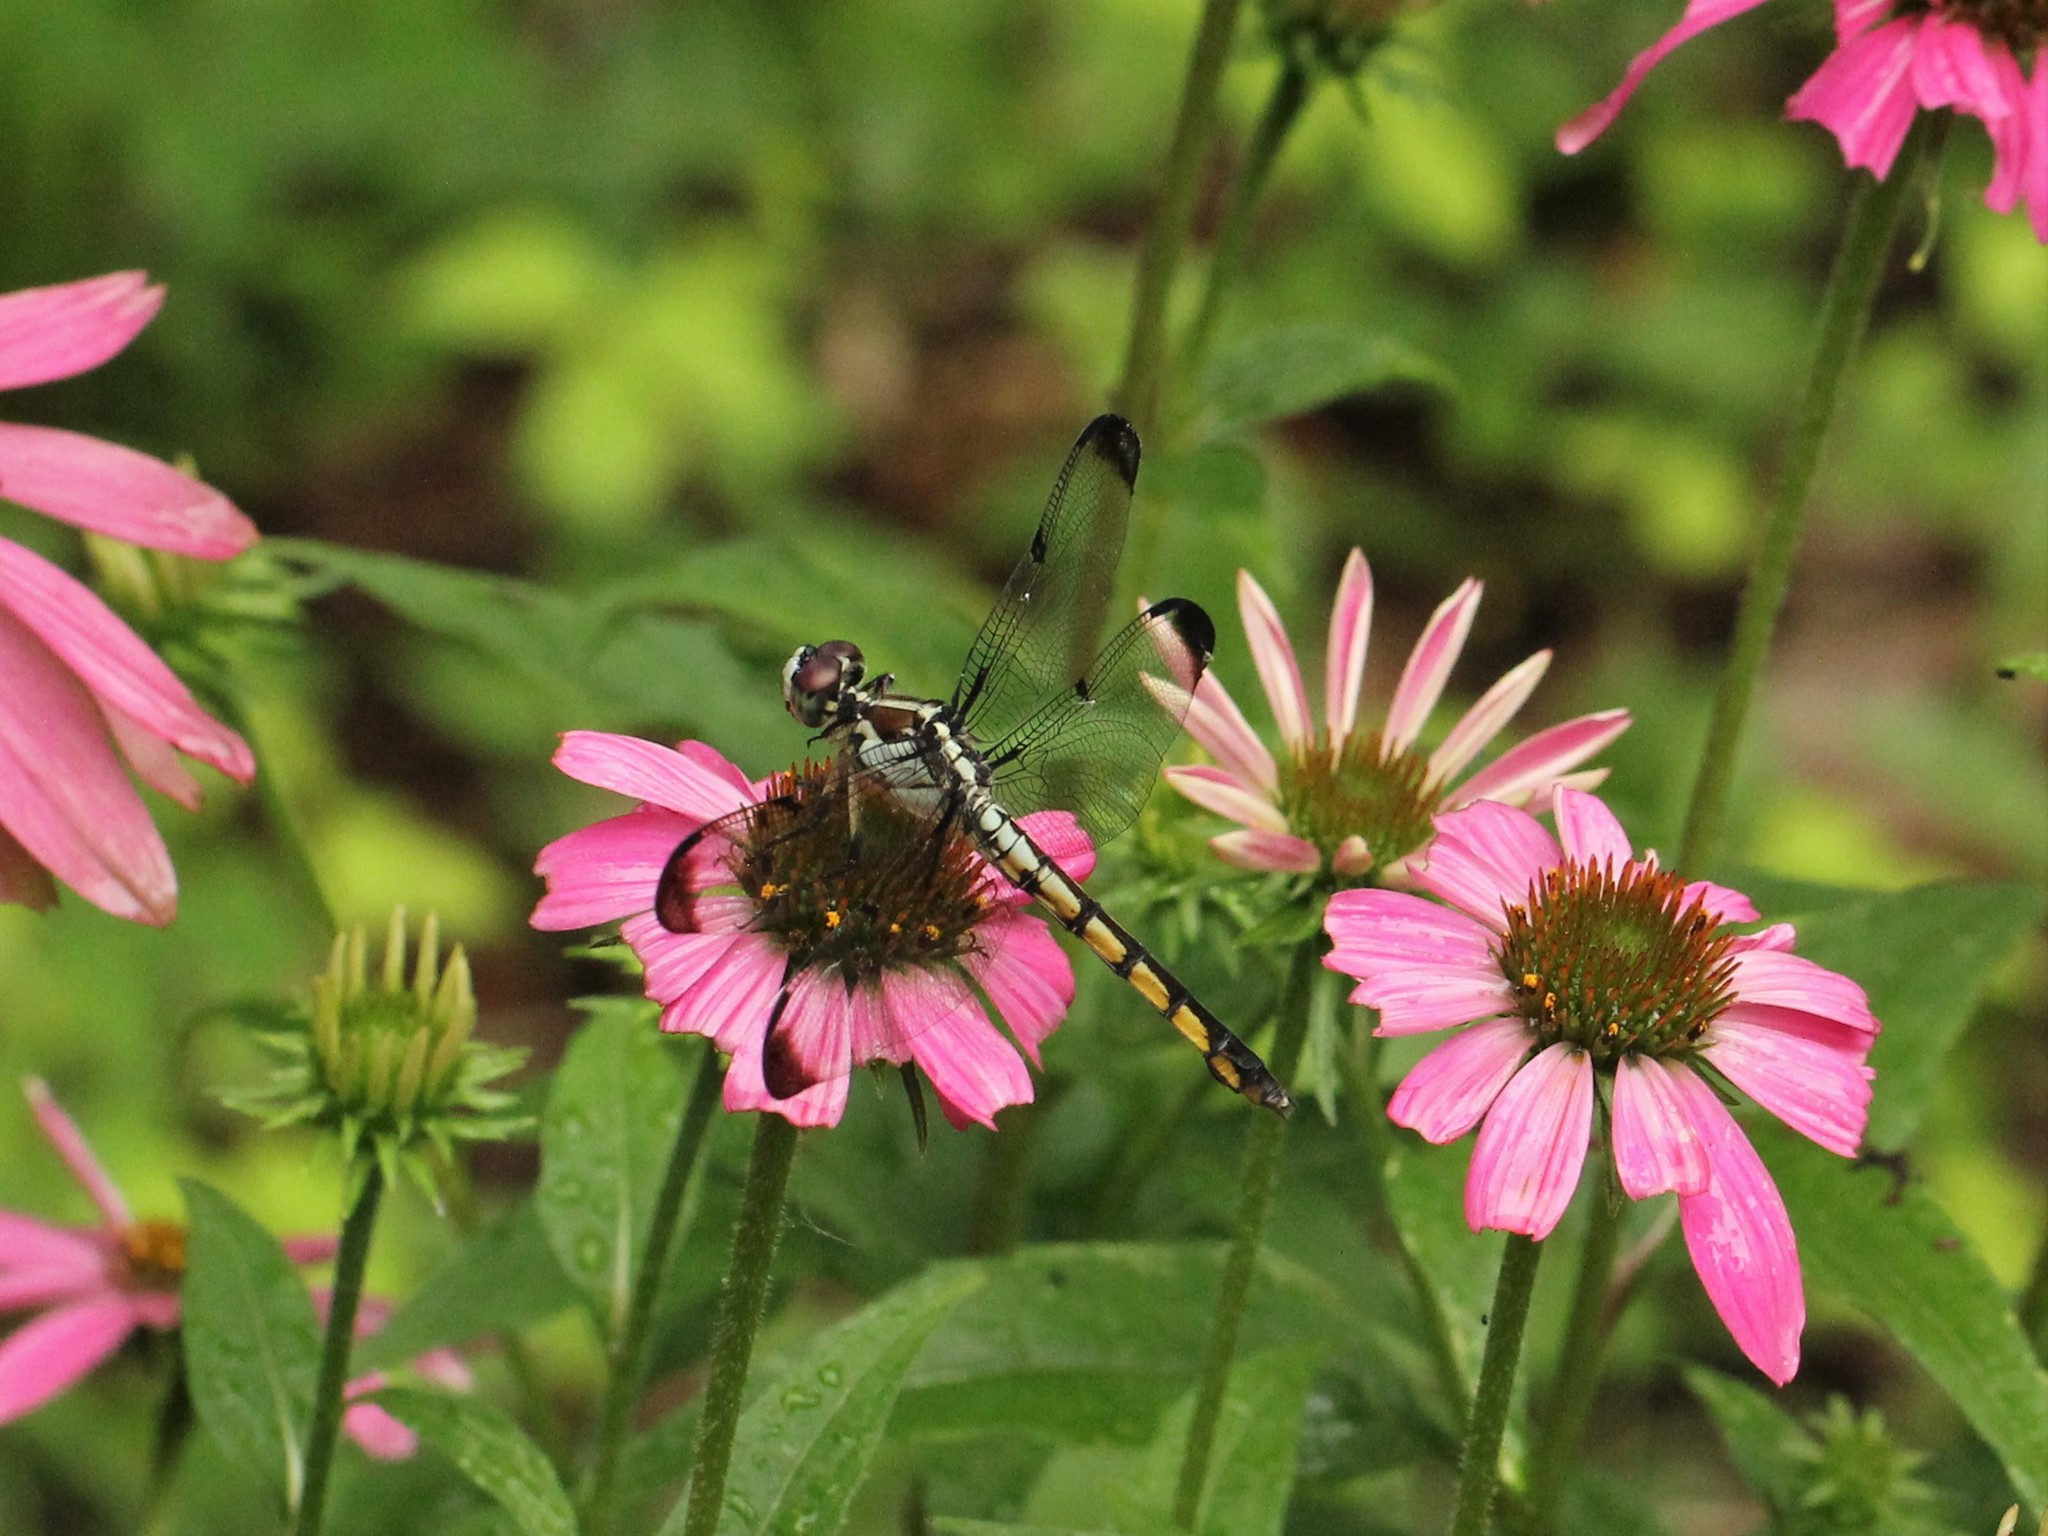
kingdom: Animalia
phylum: Arthropoda
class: Insecta
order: Odonata
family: Libellulidae
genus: Libellula
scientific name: Libellula vibrans
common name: Great blue skimmer
